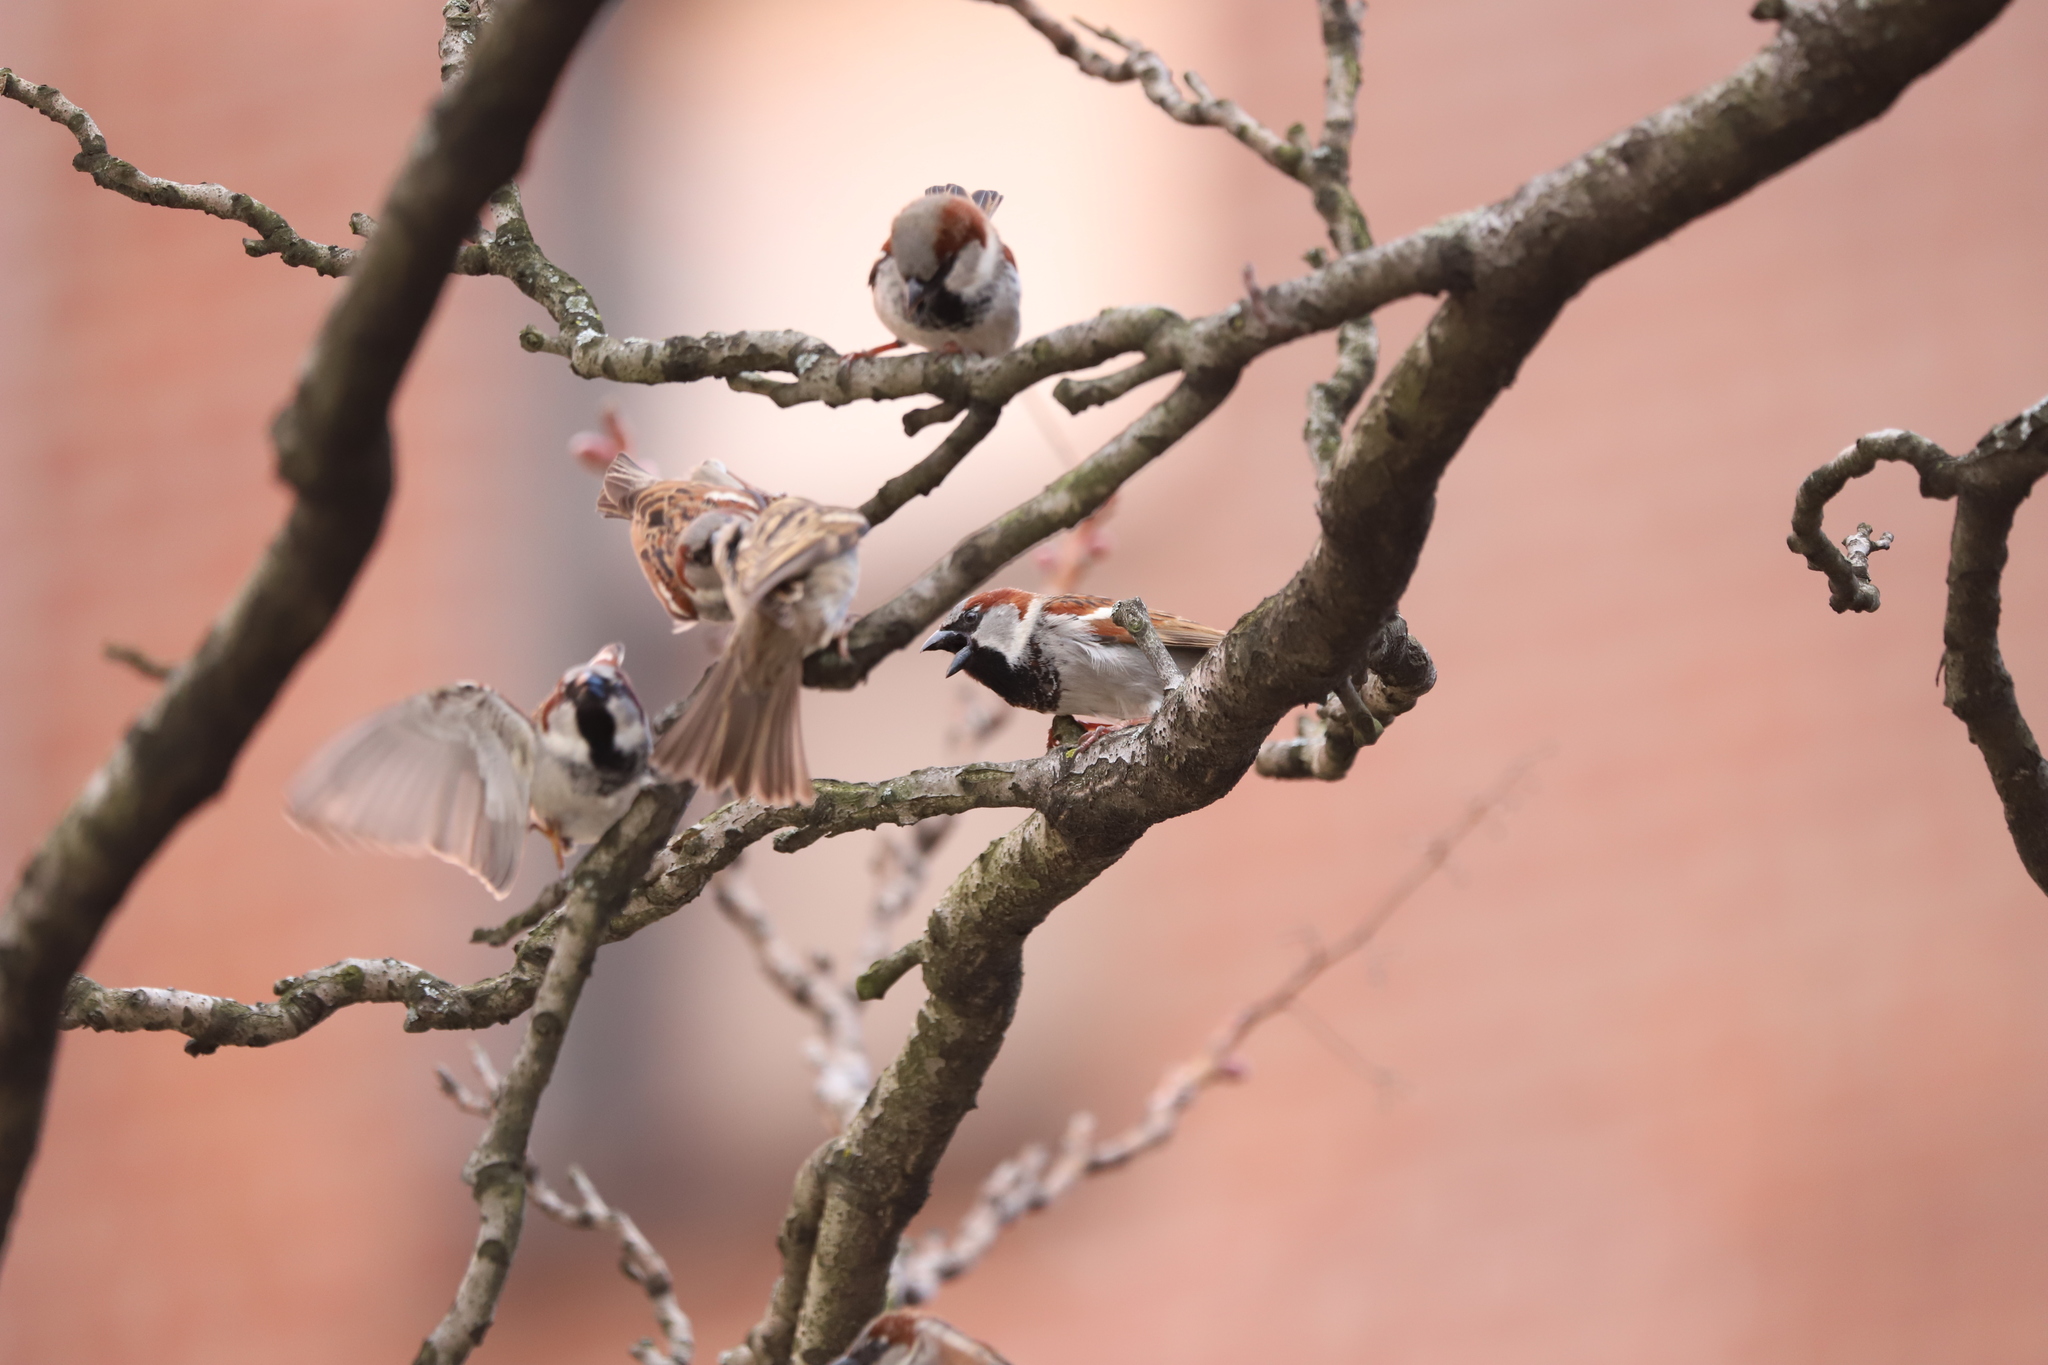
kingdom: Animalia
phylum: Chordata
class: Aves
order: Passeriformes
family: Passeridae
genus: Passer
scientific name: Passer domesticus
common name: House sparrow
